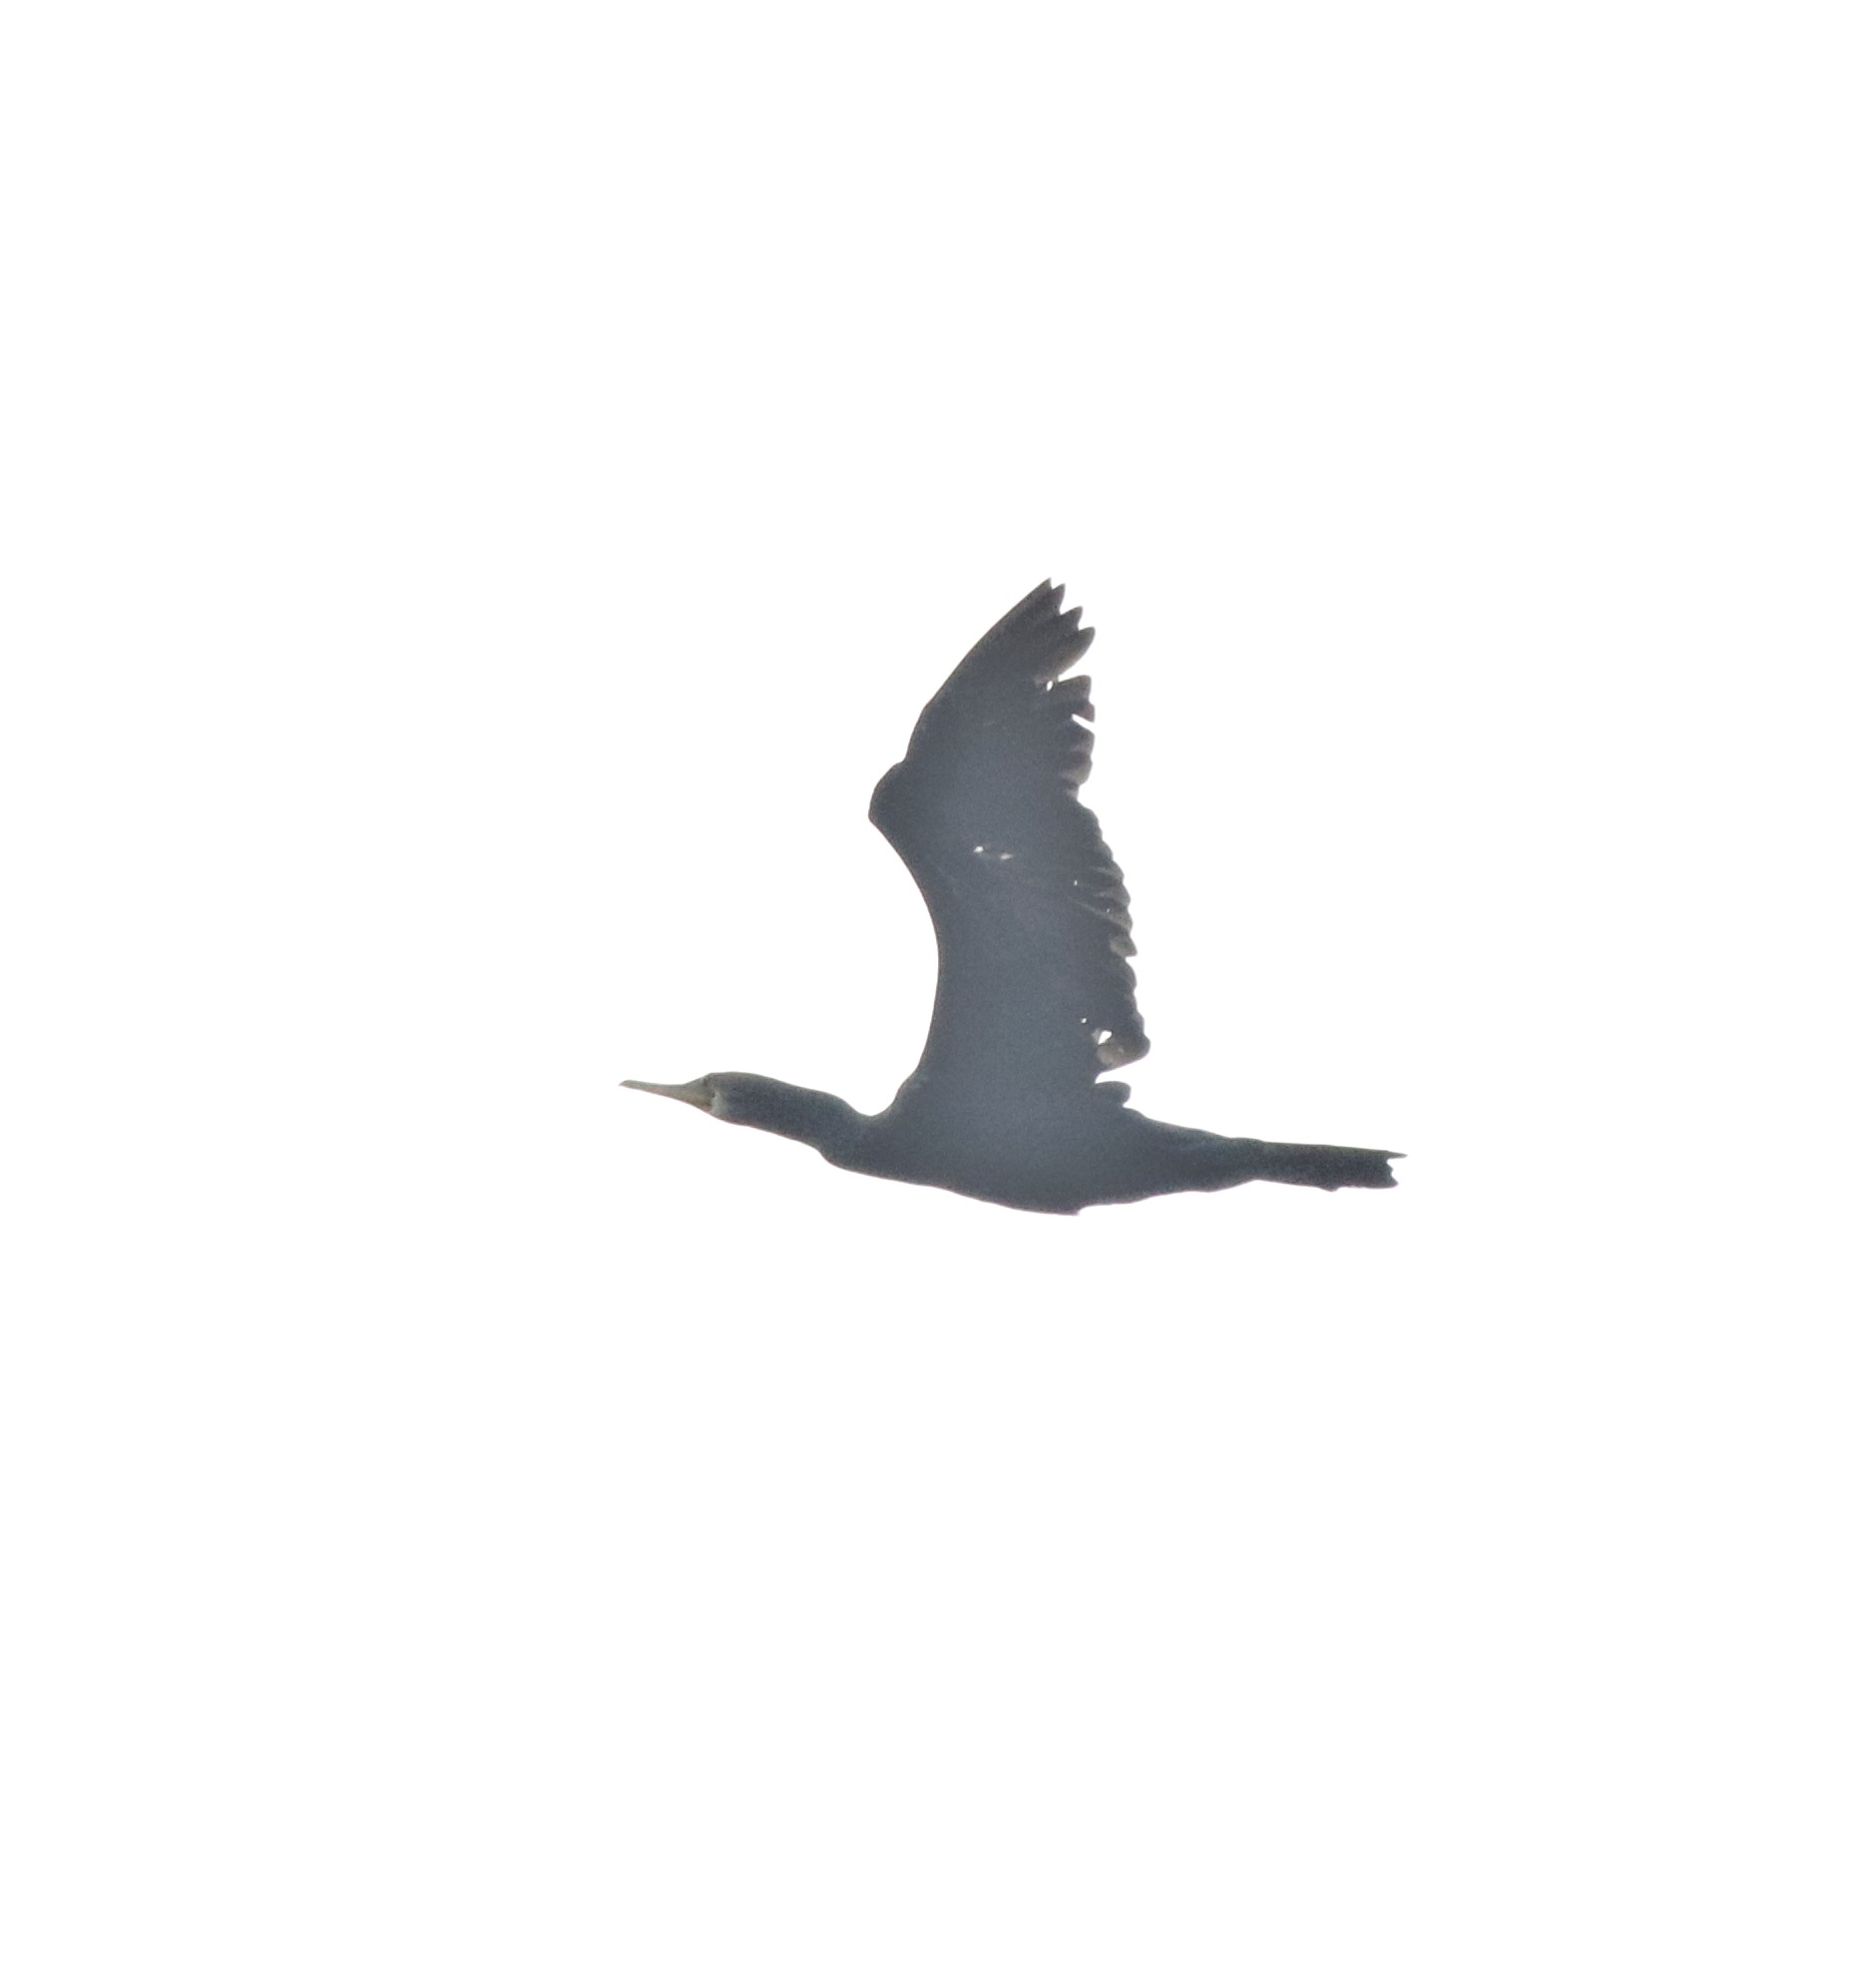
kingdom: Animalia
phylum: Chordata
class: Aves
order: Suliformes
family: Phalacrocoracidae
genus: Phalacrocorax
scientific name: Phalacrocorax fuscicollis
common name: Indian cormorant
